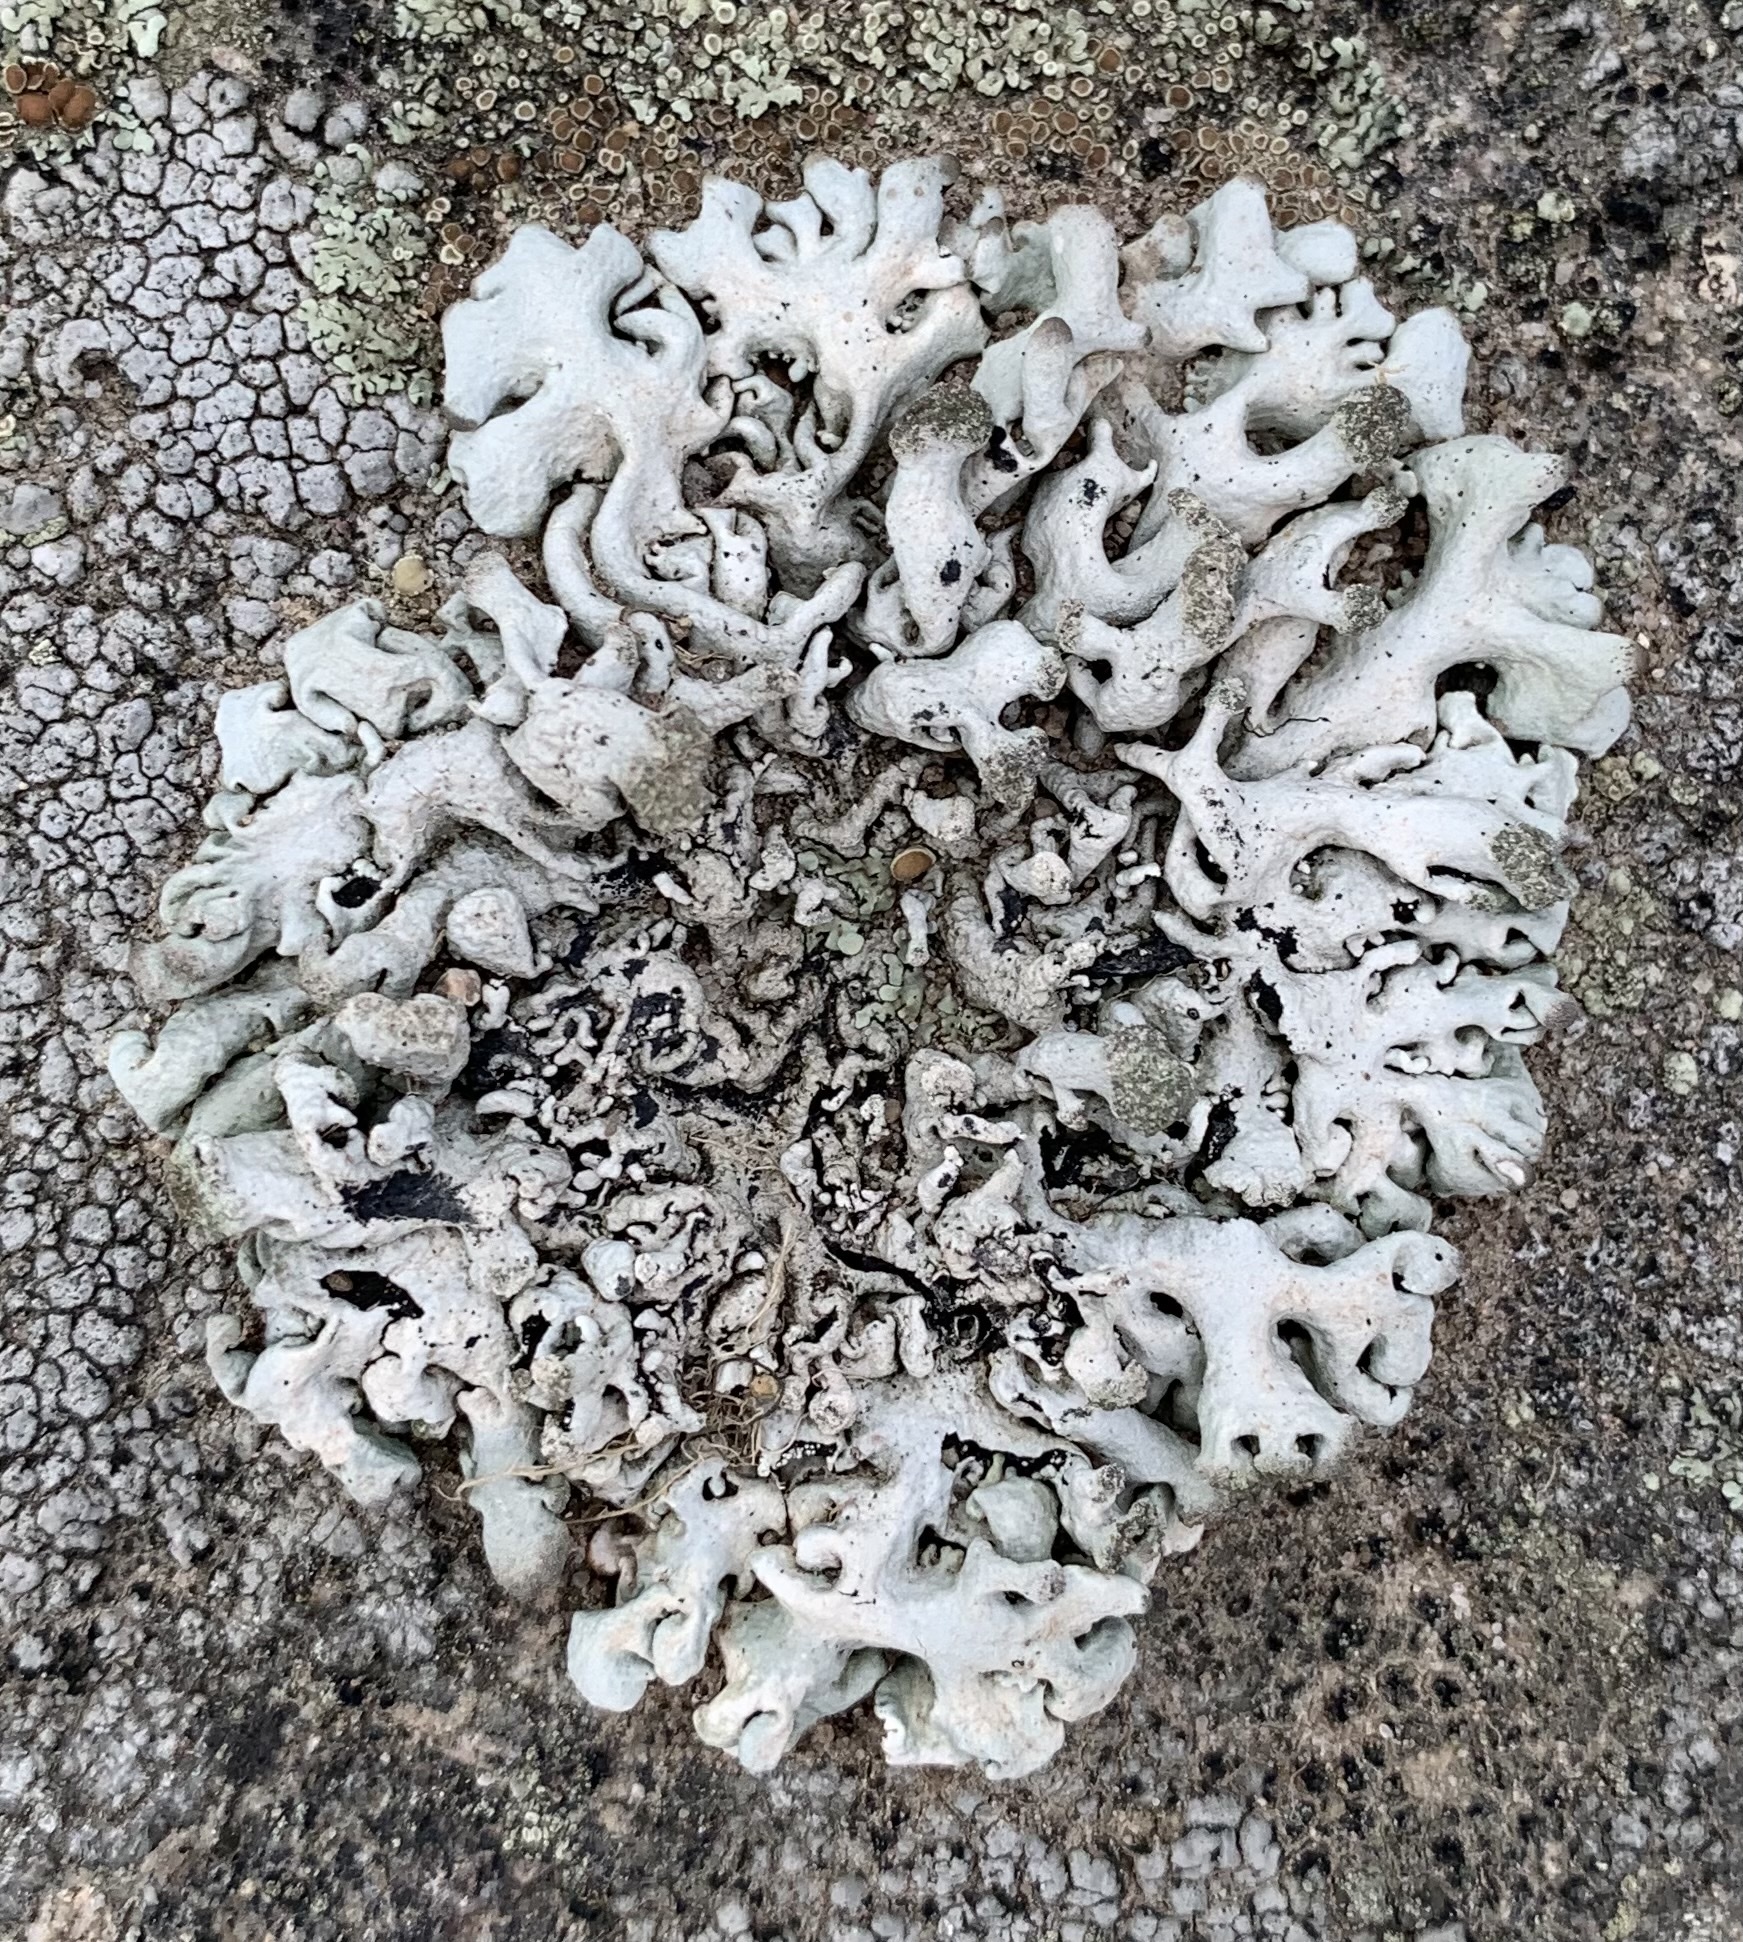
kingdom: Fungi
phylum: Ascomycota
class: Lecanoromycetes
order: Lecanorales
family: Parmeliaceae
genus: Hypogymnia
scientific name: Hypogymnia tubulosa
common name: Powder-headed tube lichen
